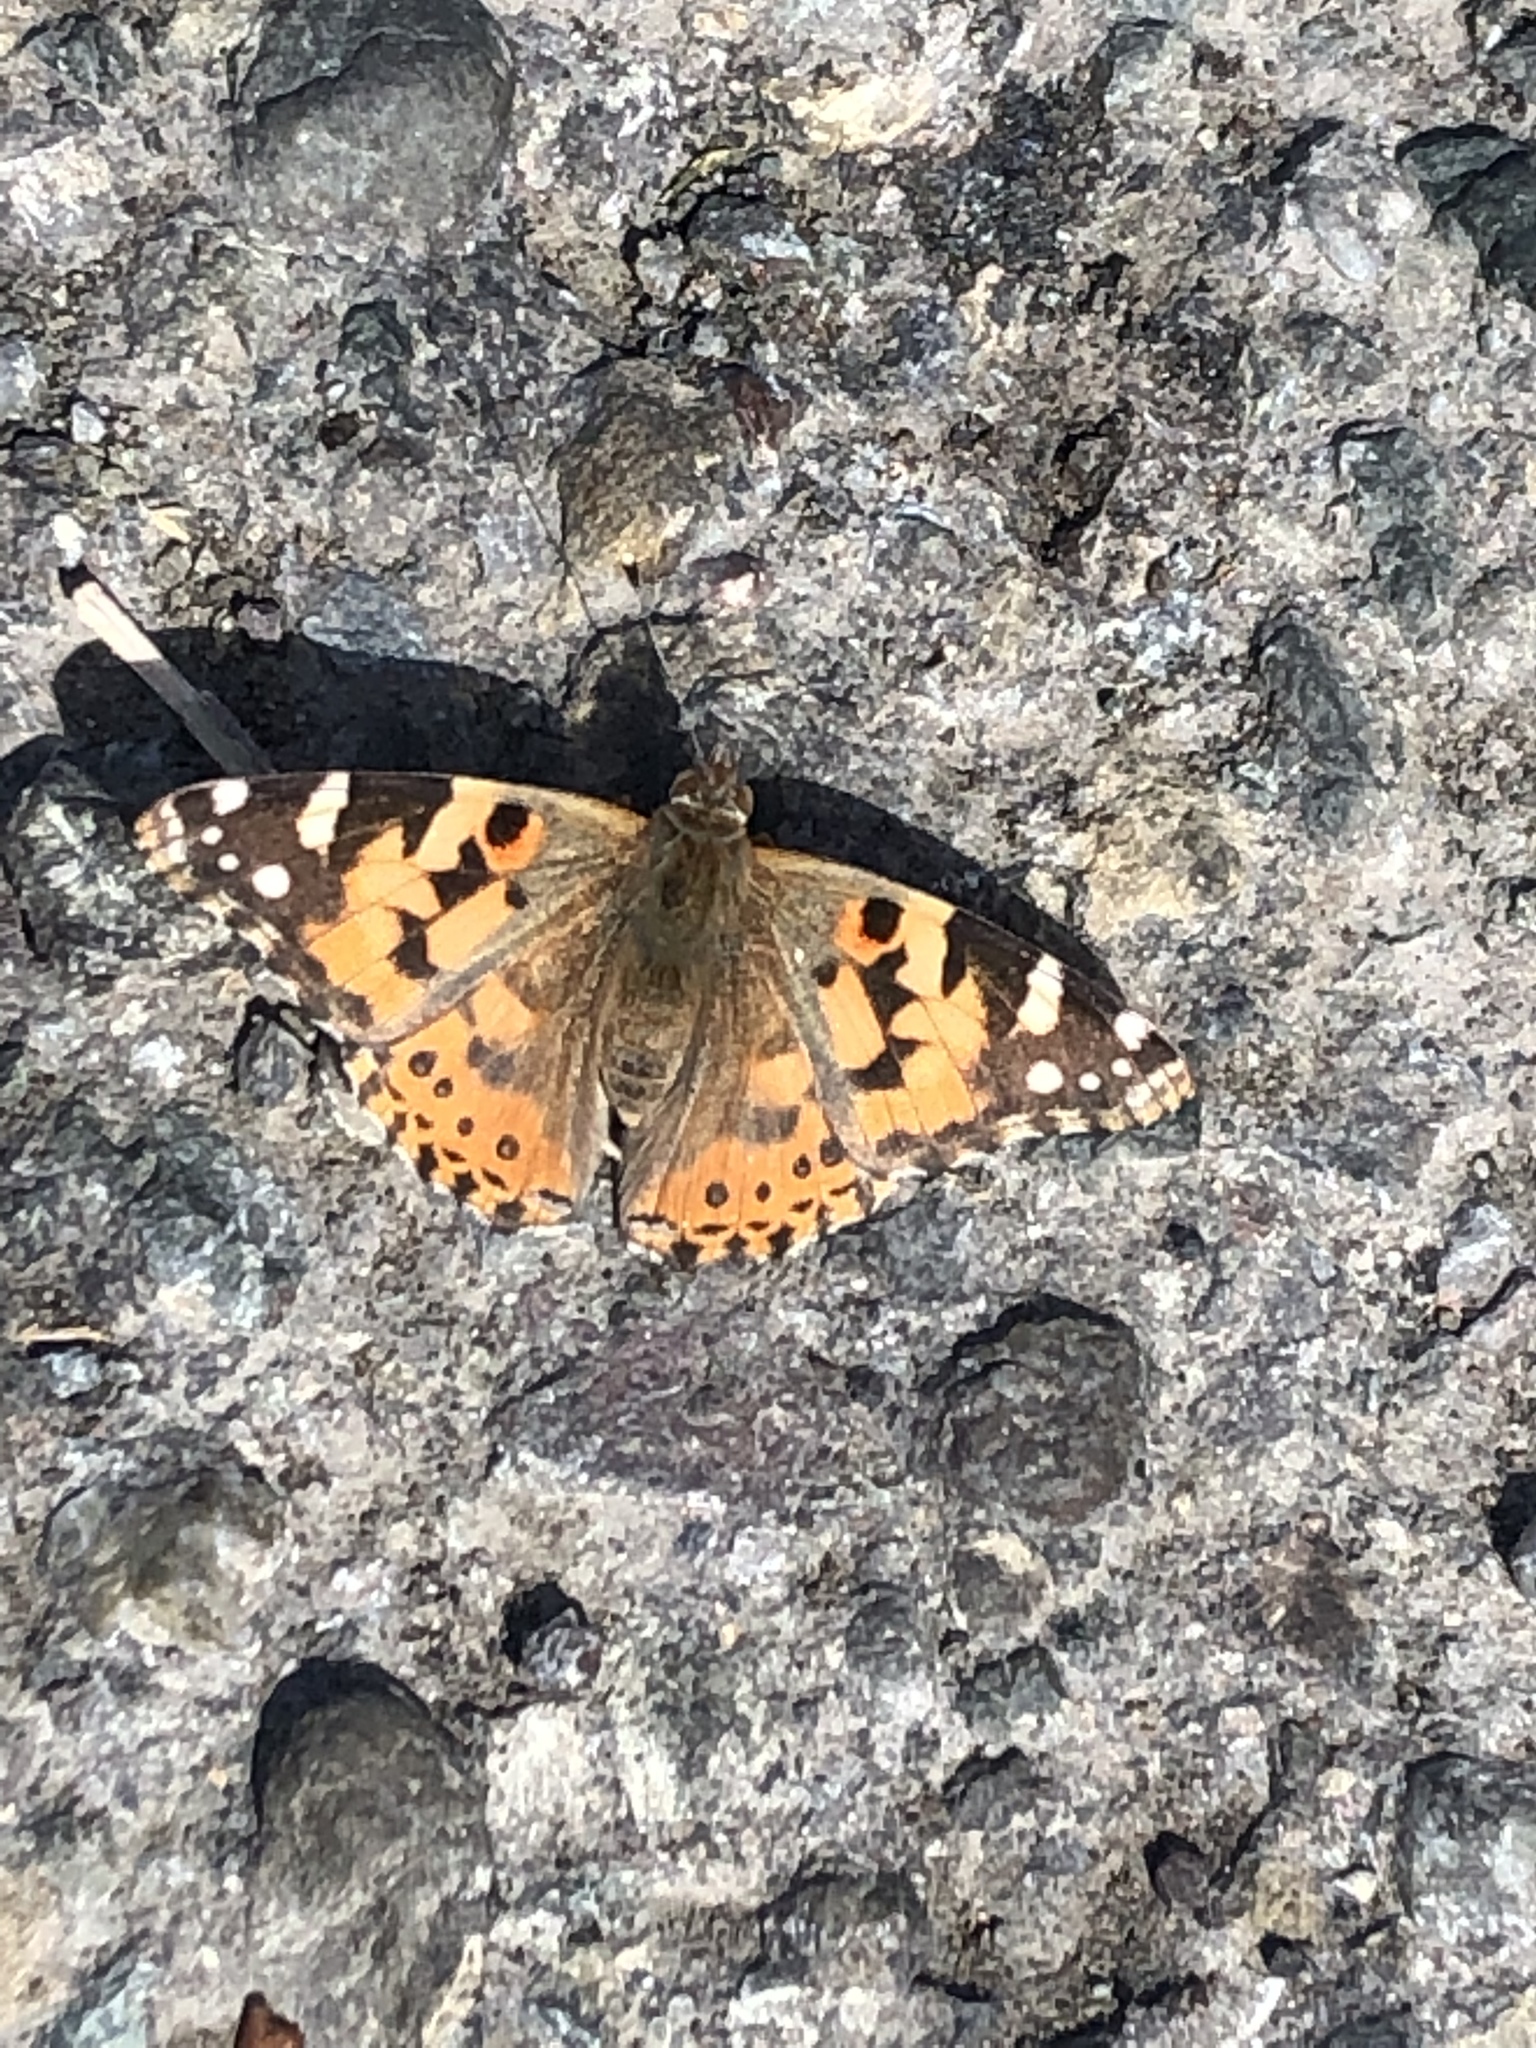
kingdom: Animalia
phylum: Arthropoda
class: Insecta
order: Lepidoptera
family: Nymphalidae
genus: Vanessa
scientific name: Vanessa cardui
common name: Painted lady
